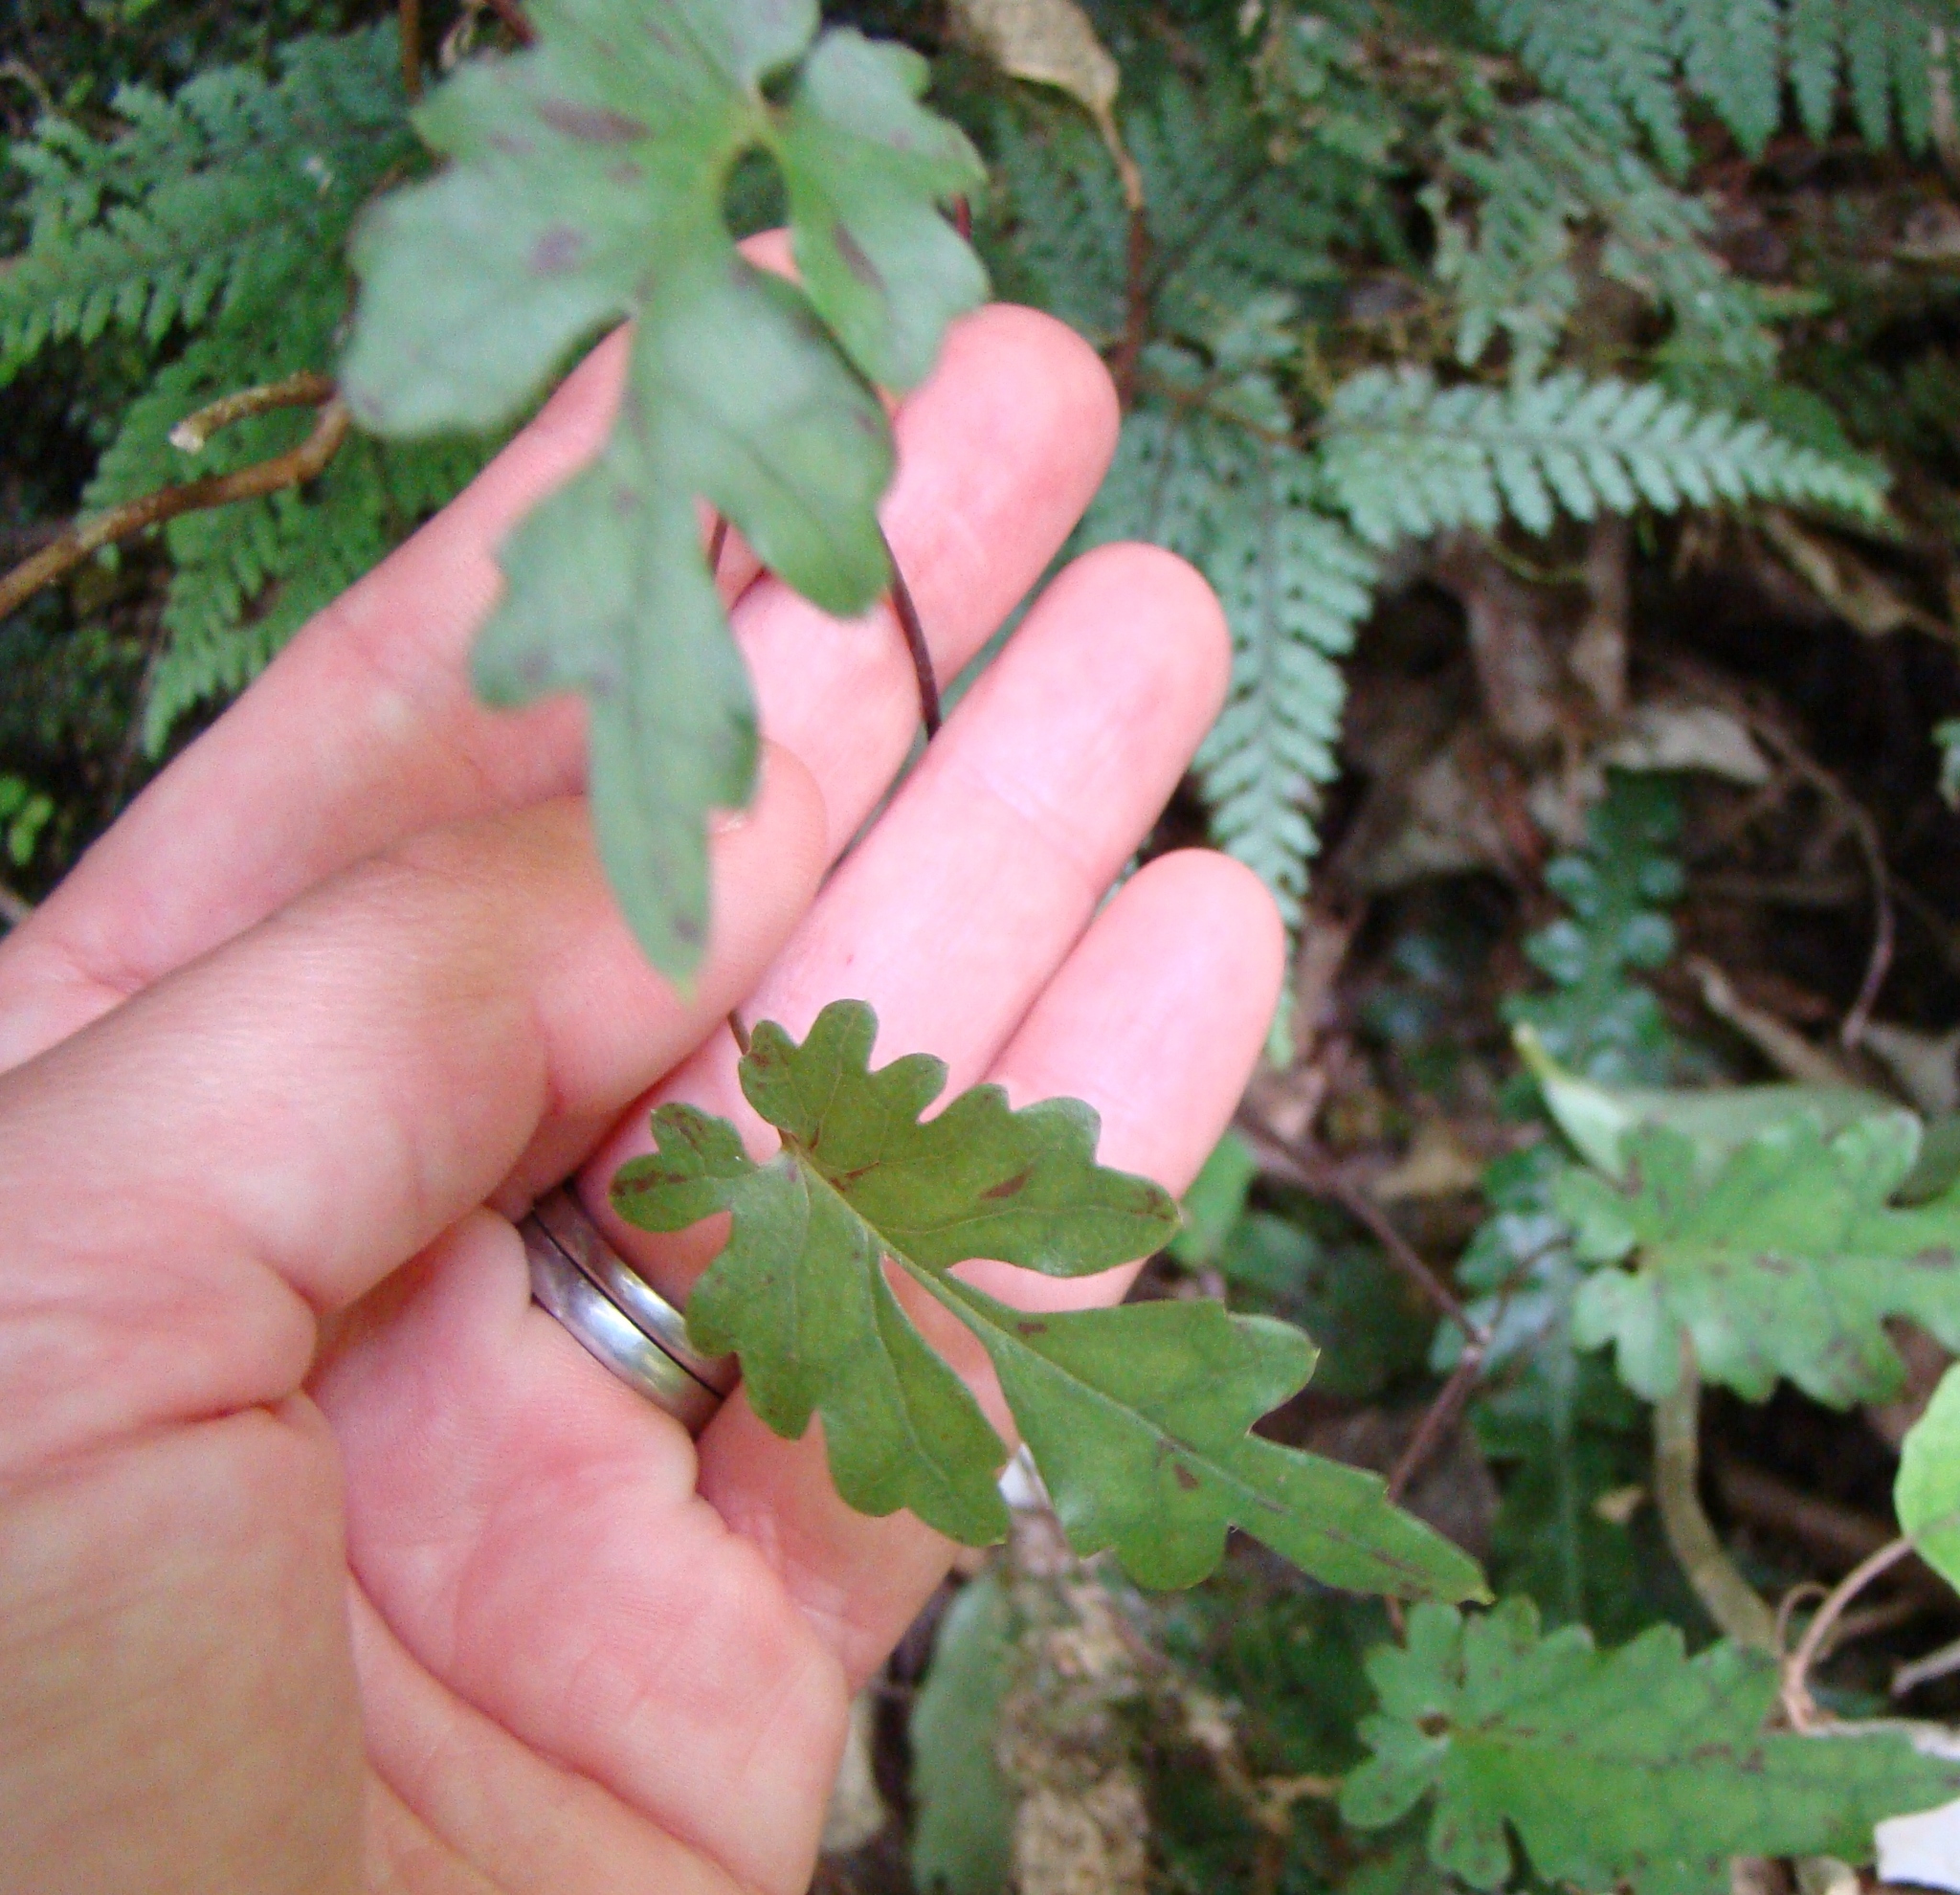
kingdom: Plantae
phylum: Tracheophyta
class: Magnoliopsida
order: Ranunculales
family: Ranunculaceae
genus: Clematis
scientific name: Clematis forsteri
